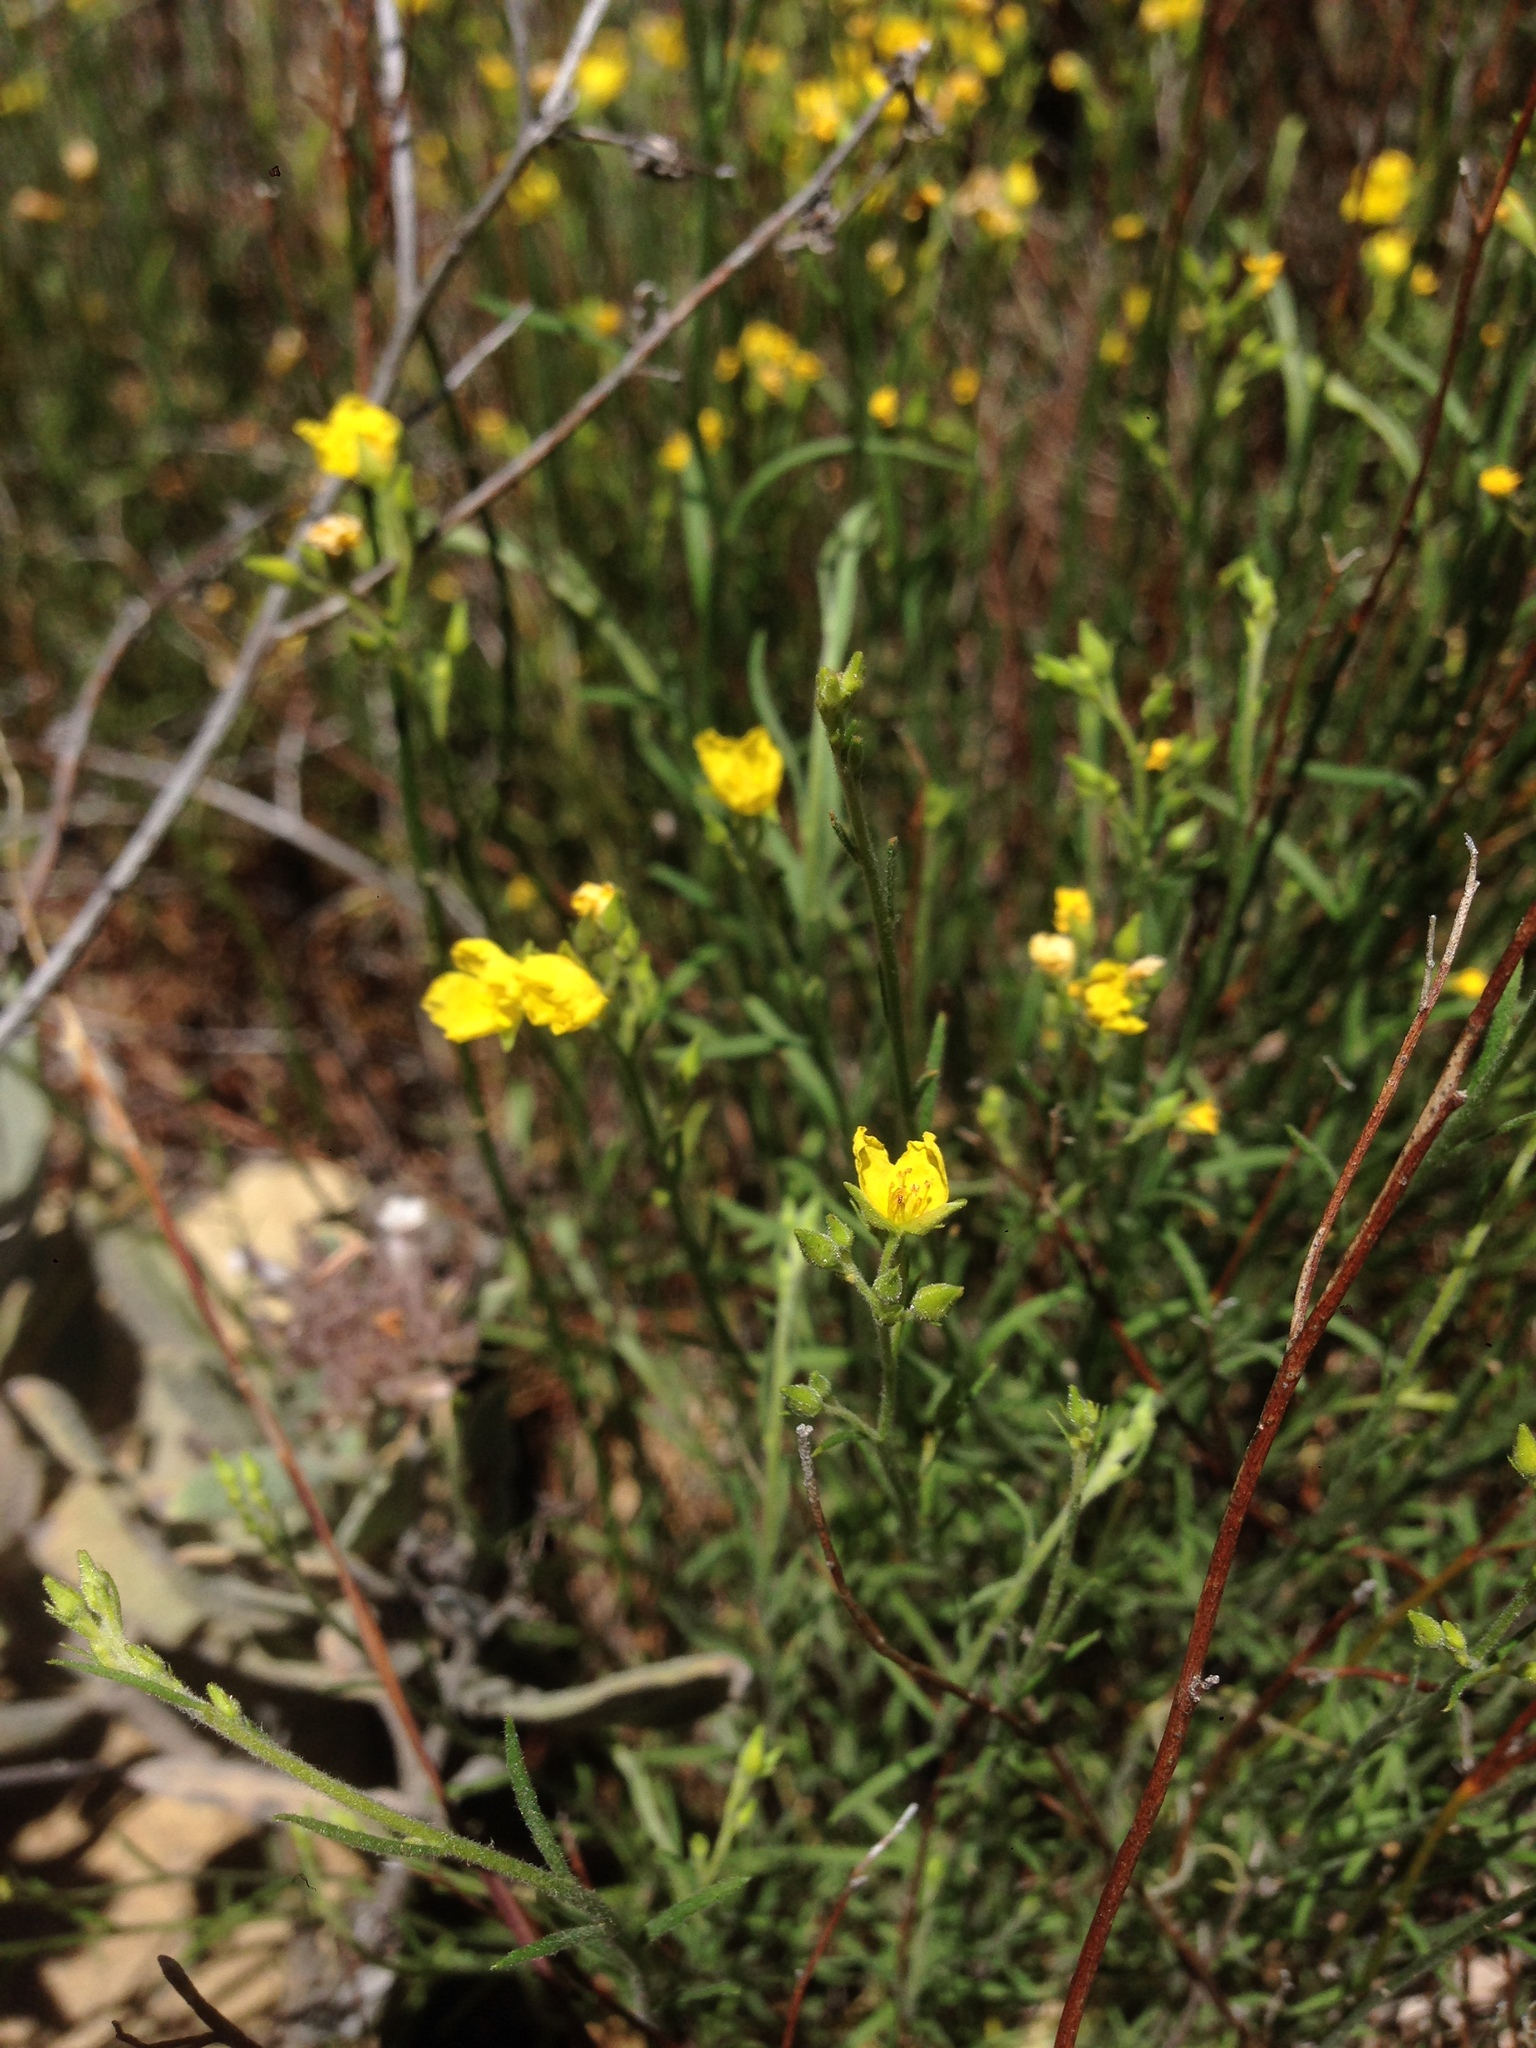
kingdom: Plantae
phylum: Tracheophyta
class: Magnoliopsida
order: Malvales
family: Cistaceae
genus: Crocanthemum
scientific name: Crocanthemum scoparium
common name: Broom-rose
